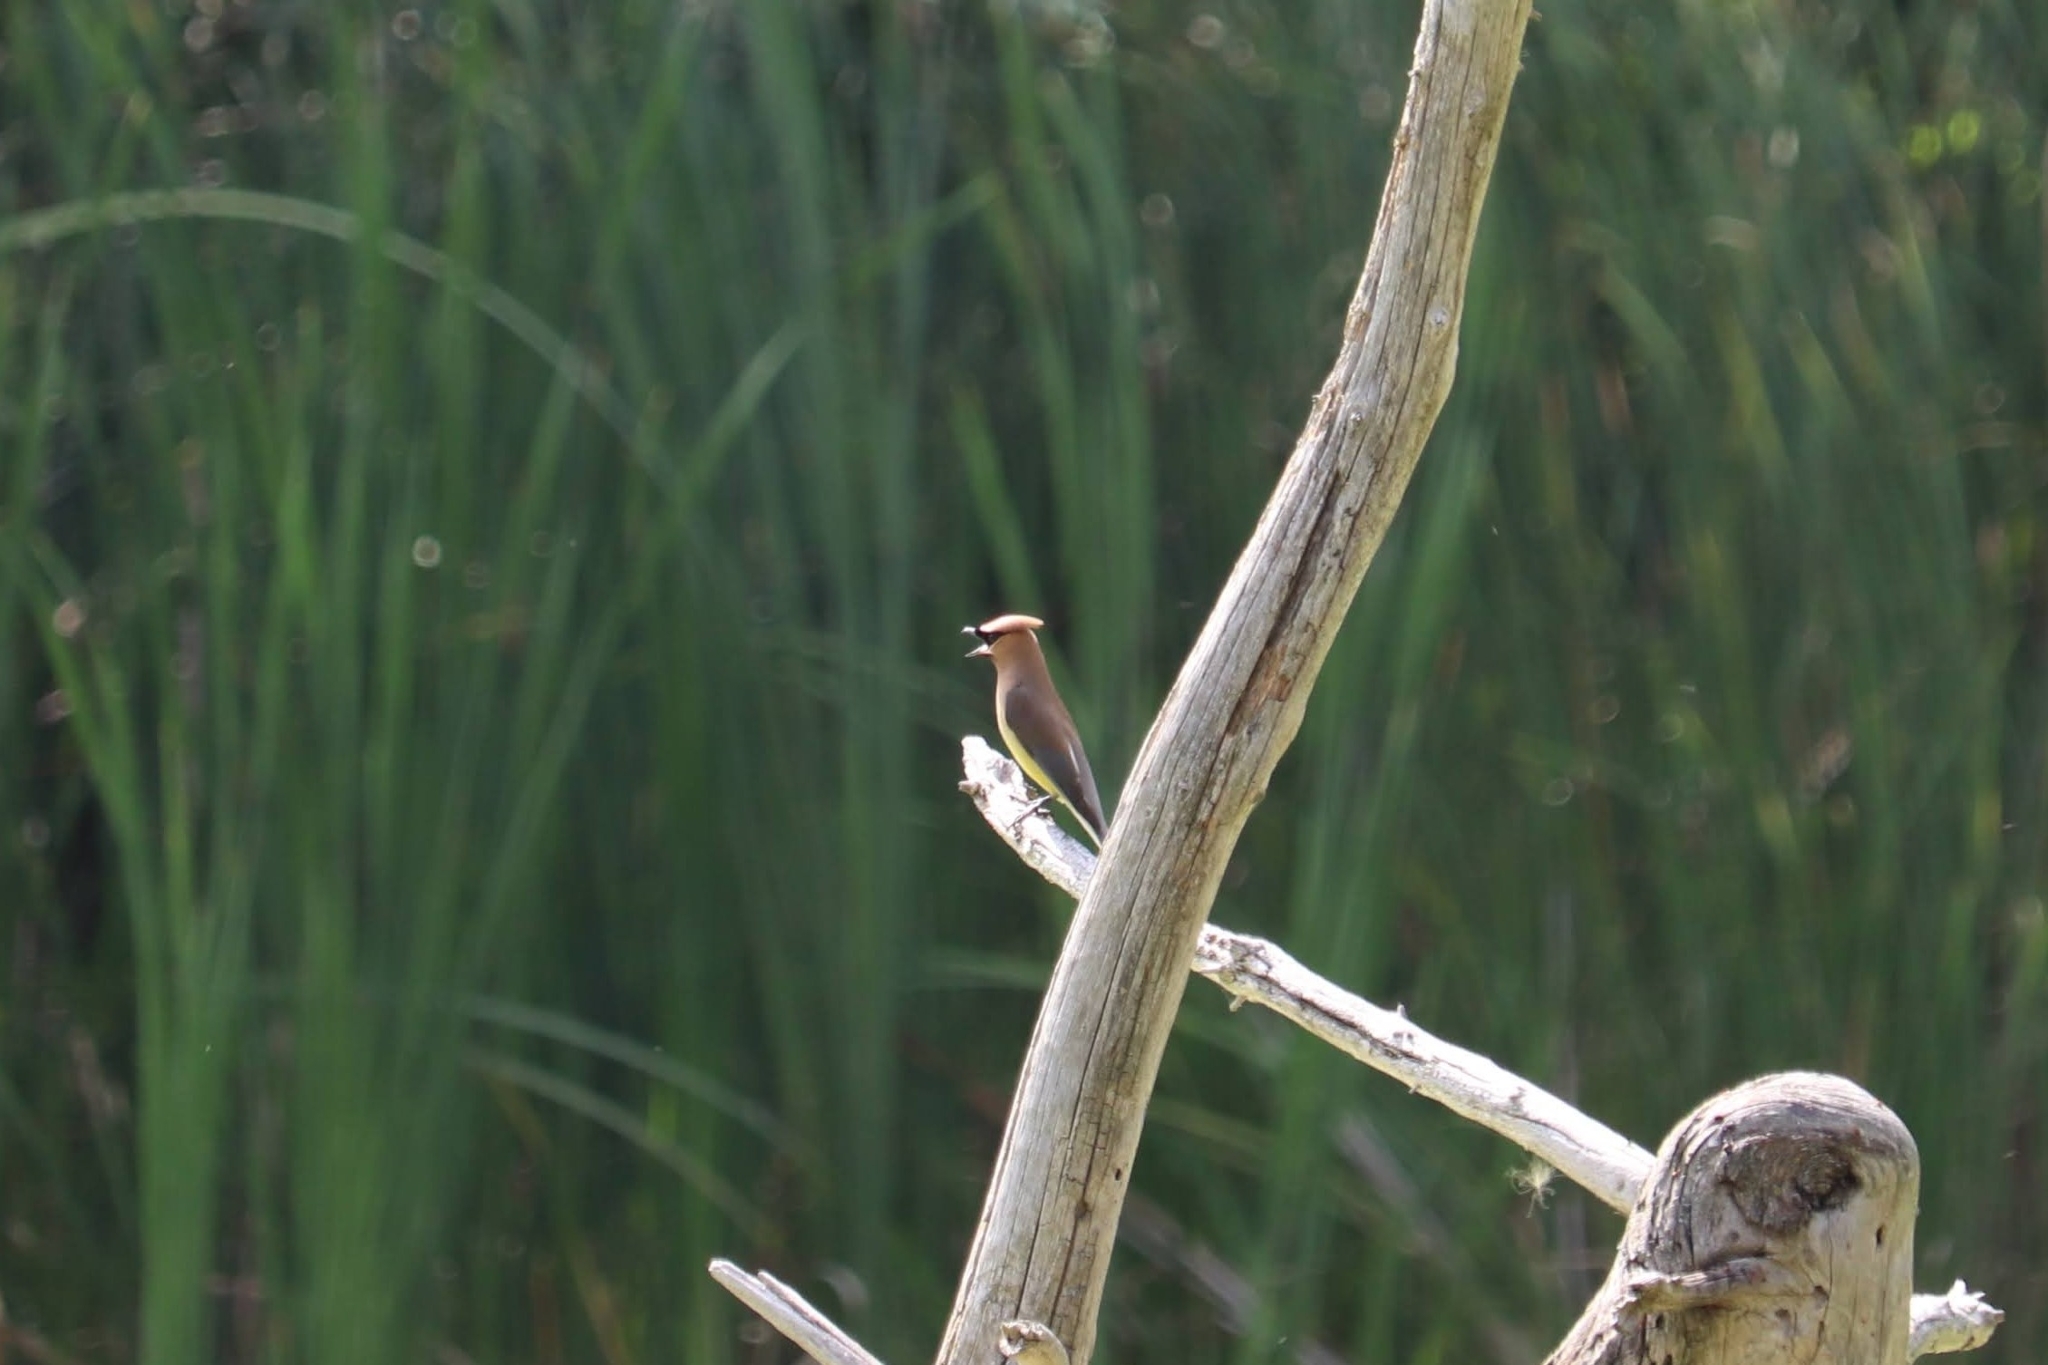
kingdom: Animalia
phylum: Chordata
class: Aves
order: Passeriformes
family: Bombycillidae
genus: Bombycilla
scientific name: Bombycilla cedrorum
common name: Cedar waxwing
